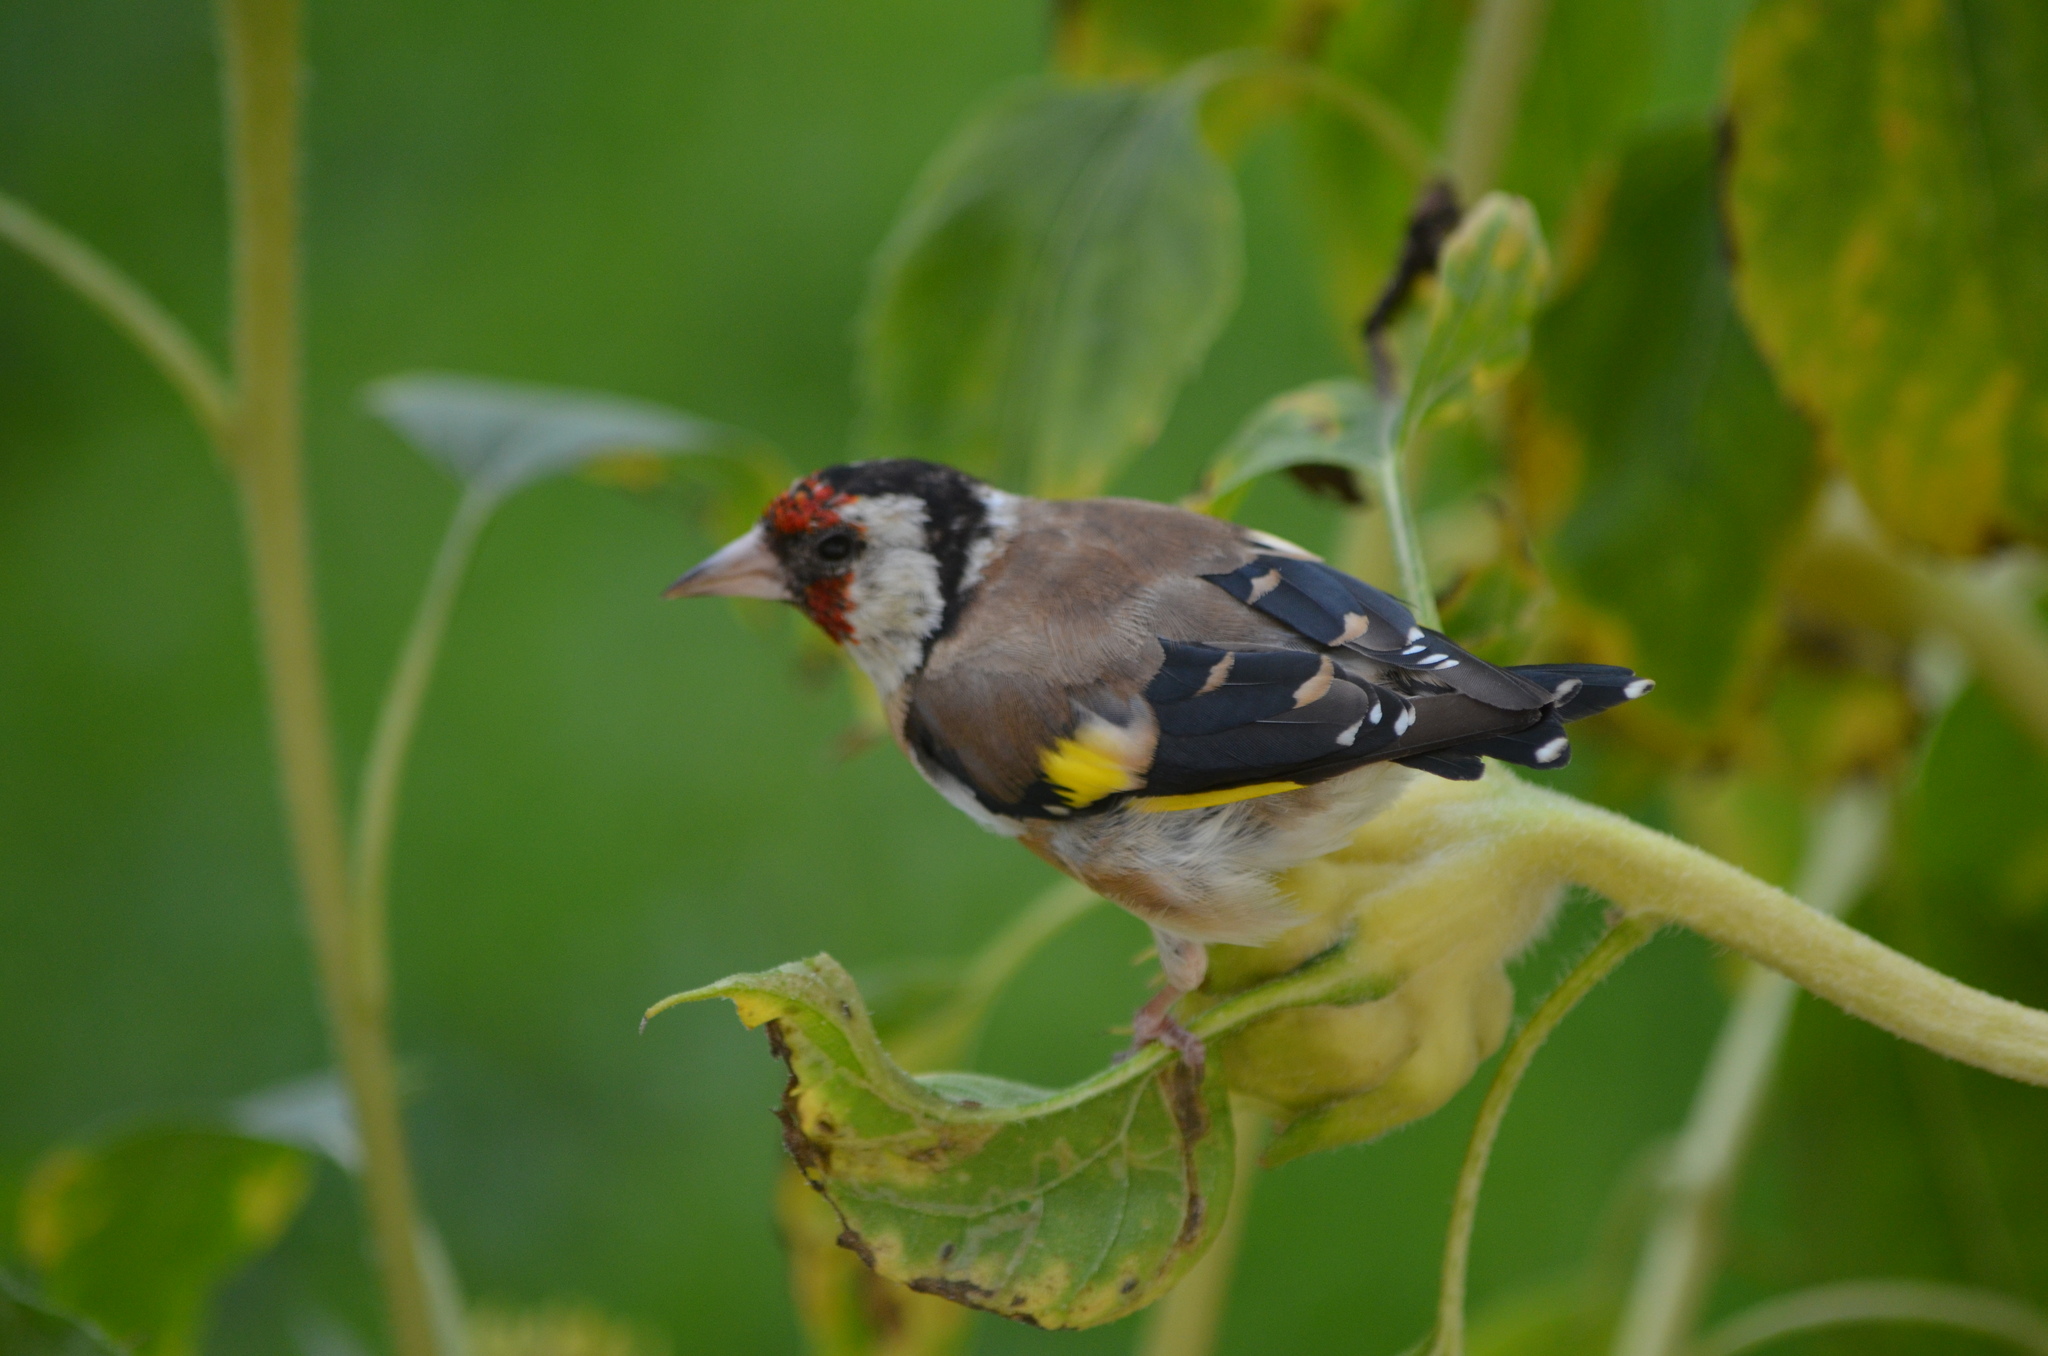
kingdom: Animalia
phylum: Chordata
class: Aves
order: Passeriformes
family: Fringillidae
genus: Carduelis
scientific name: Carduelis carduelis
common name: European goldfinch
